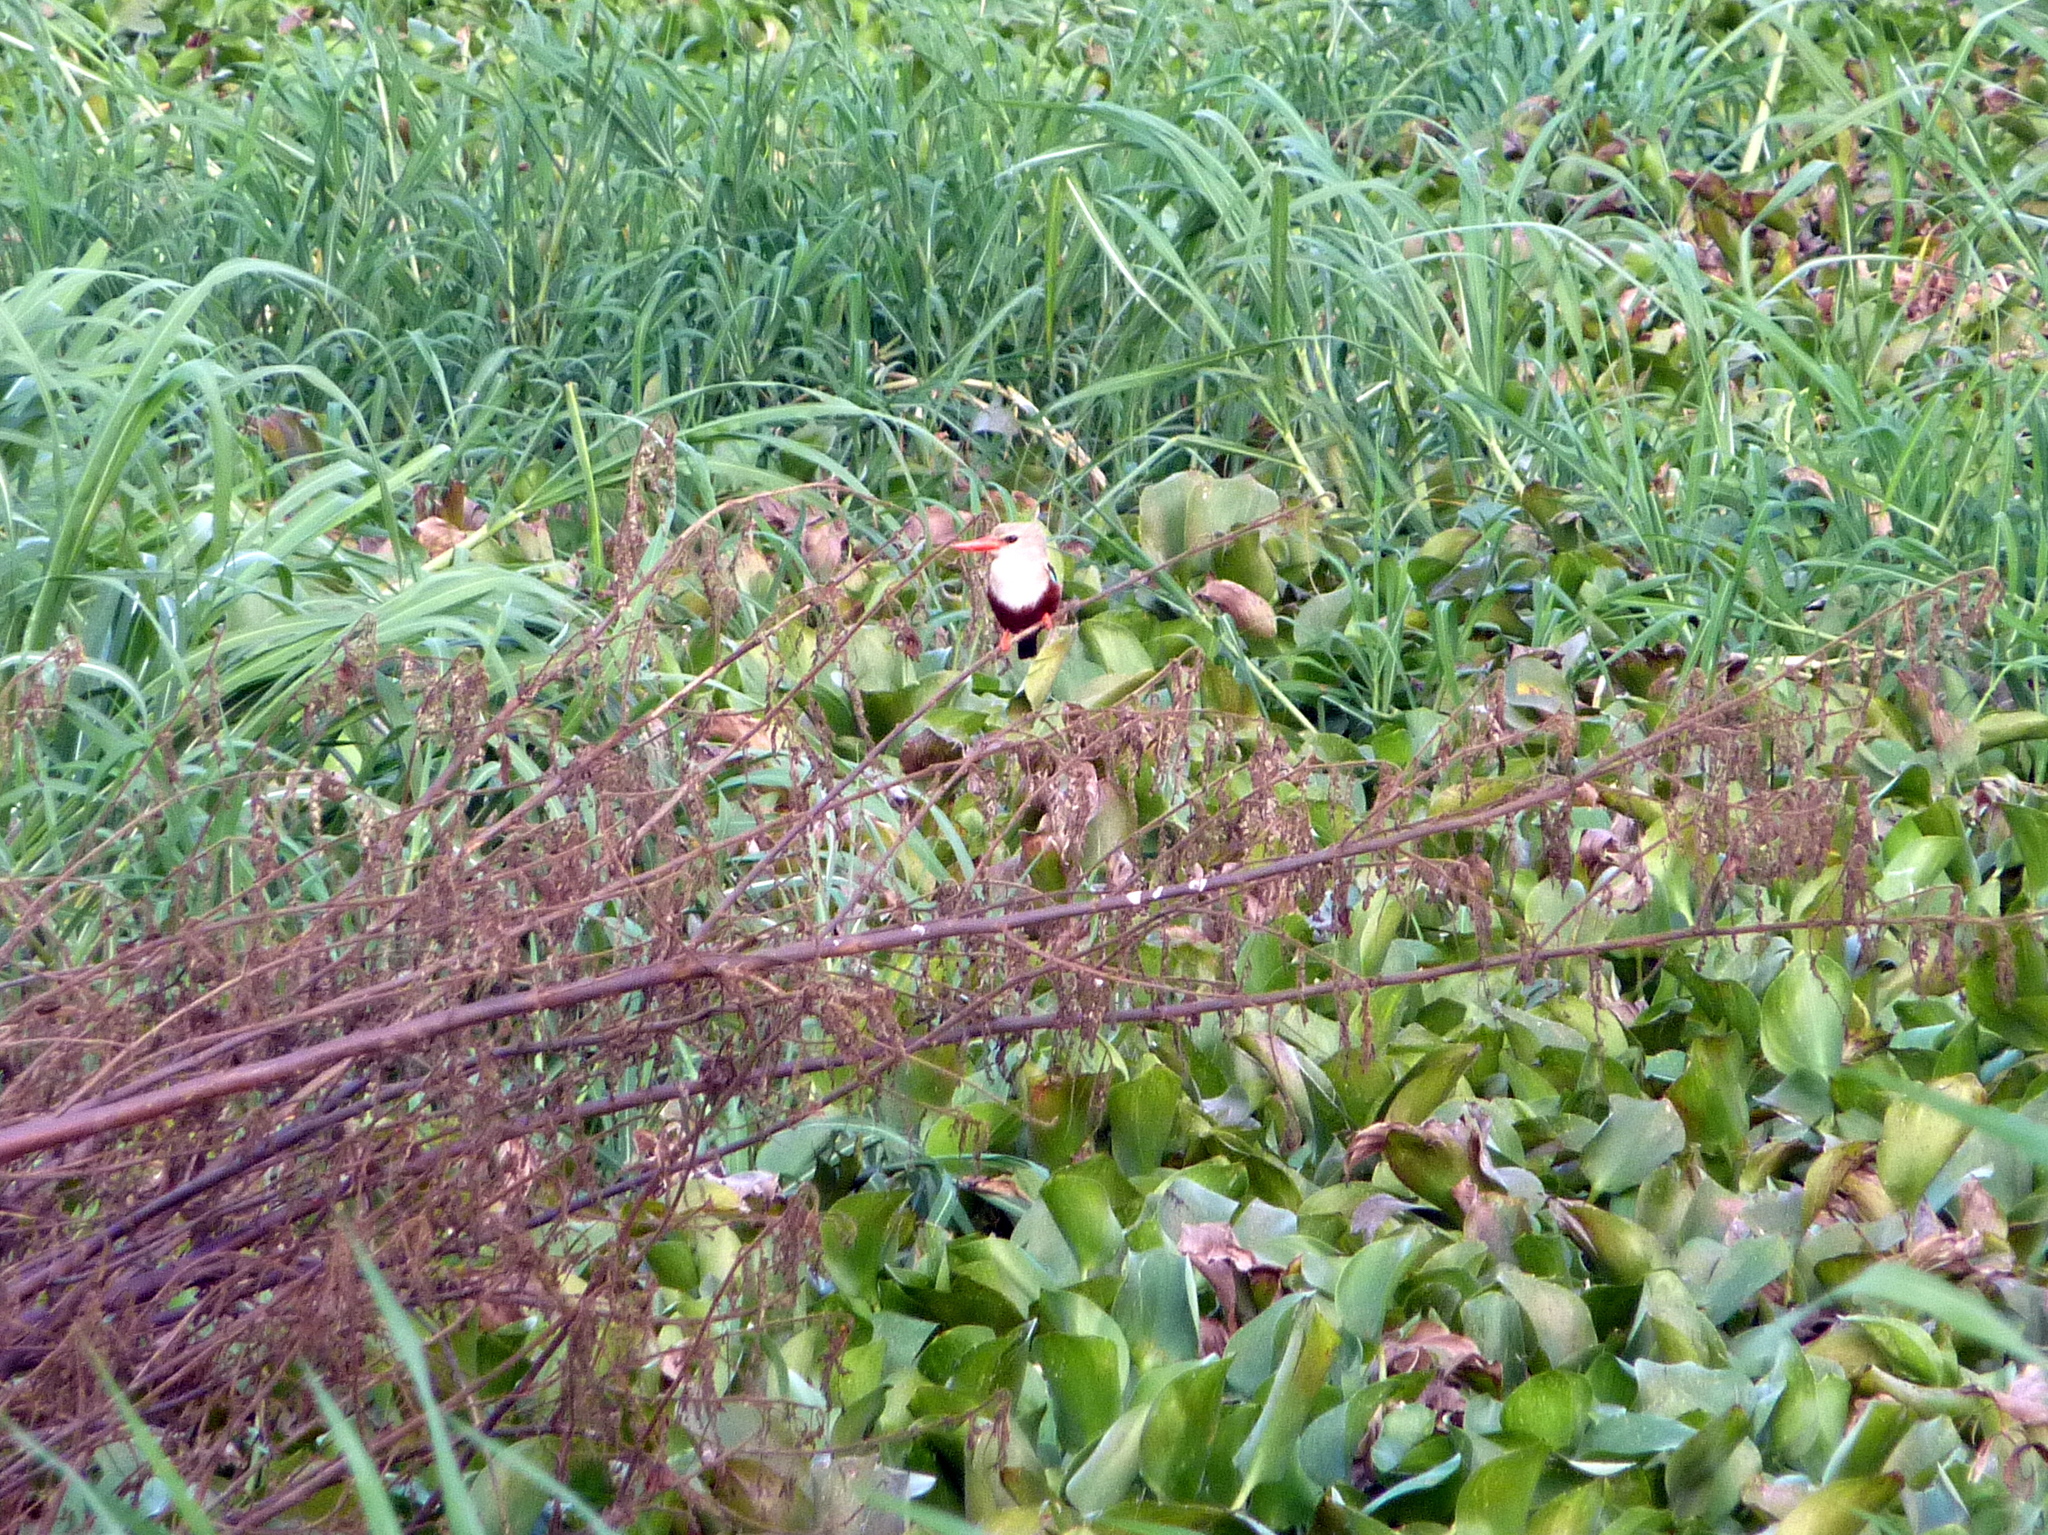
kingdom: Animalia
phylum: Chordata
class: Aves
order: Coraciiformes
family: Alcedinidae
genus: Halcyon
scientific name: Halcyon leucocephala
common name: Grey-headed kingfisher
